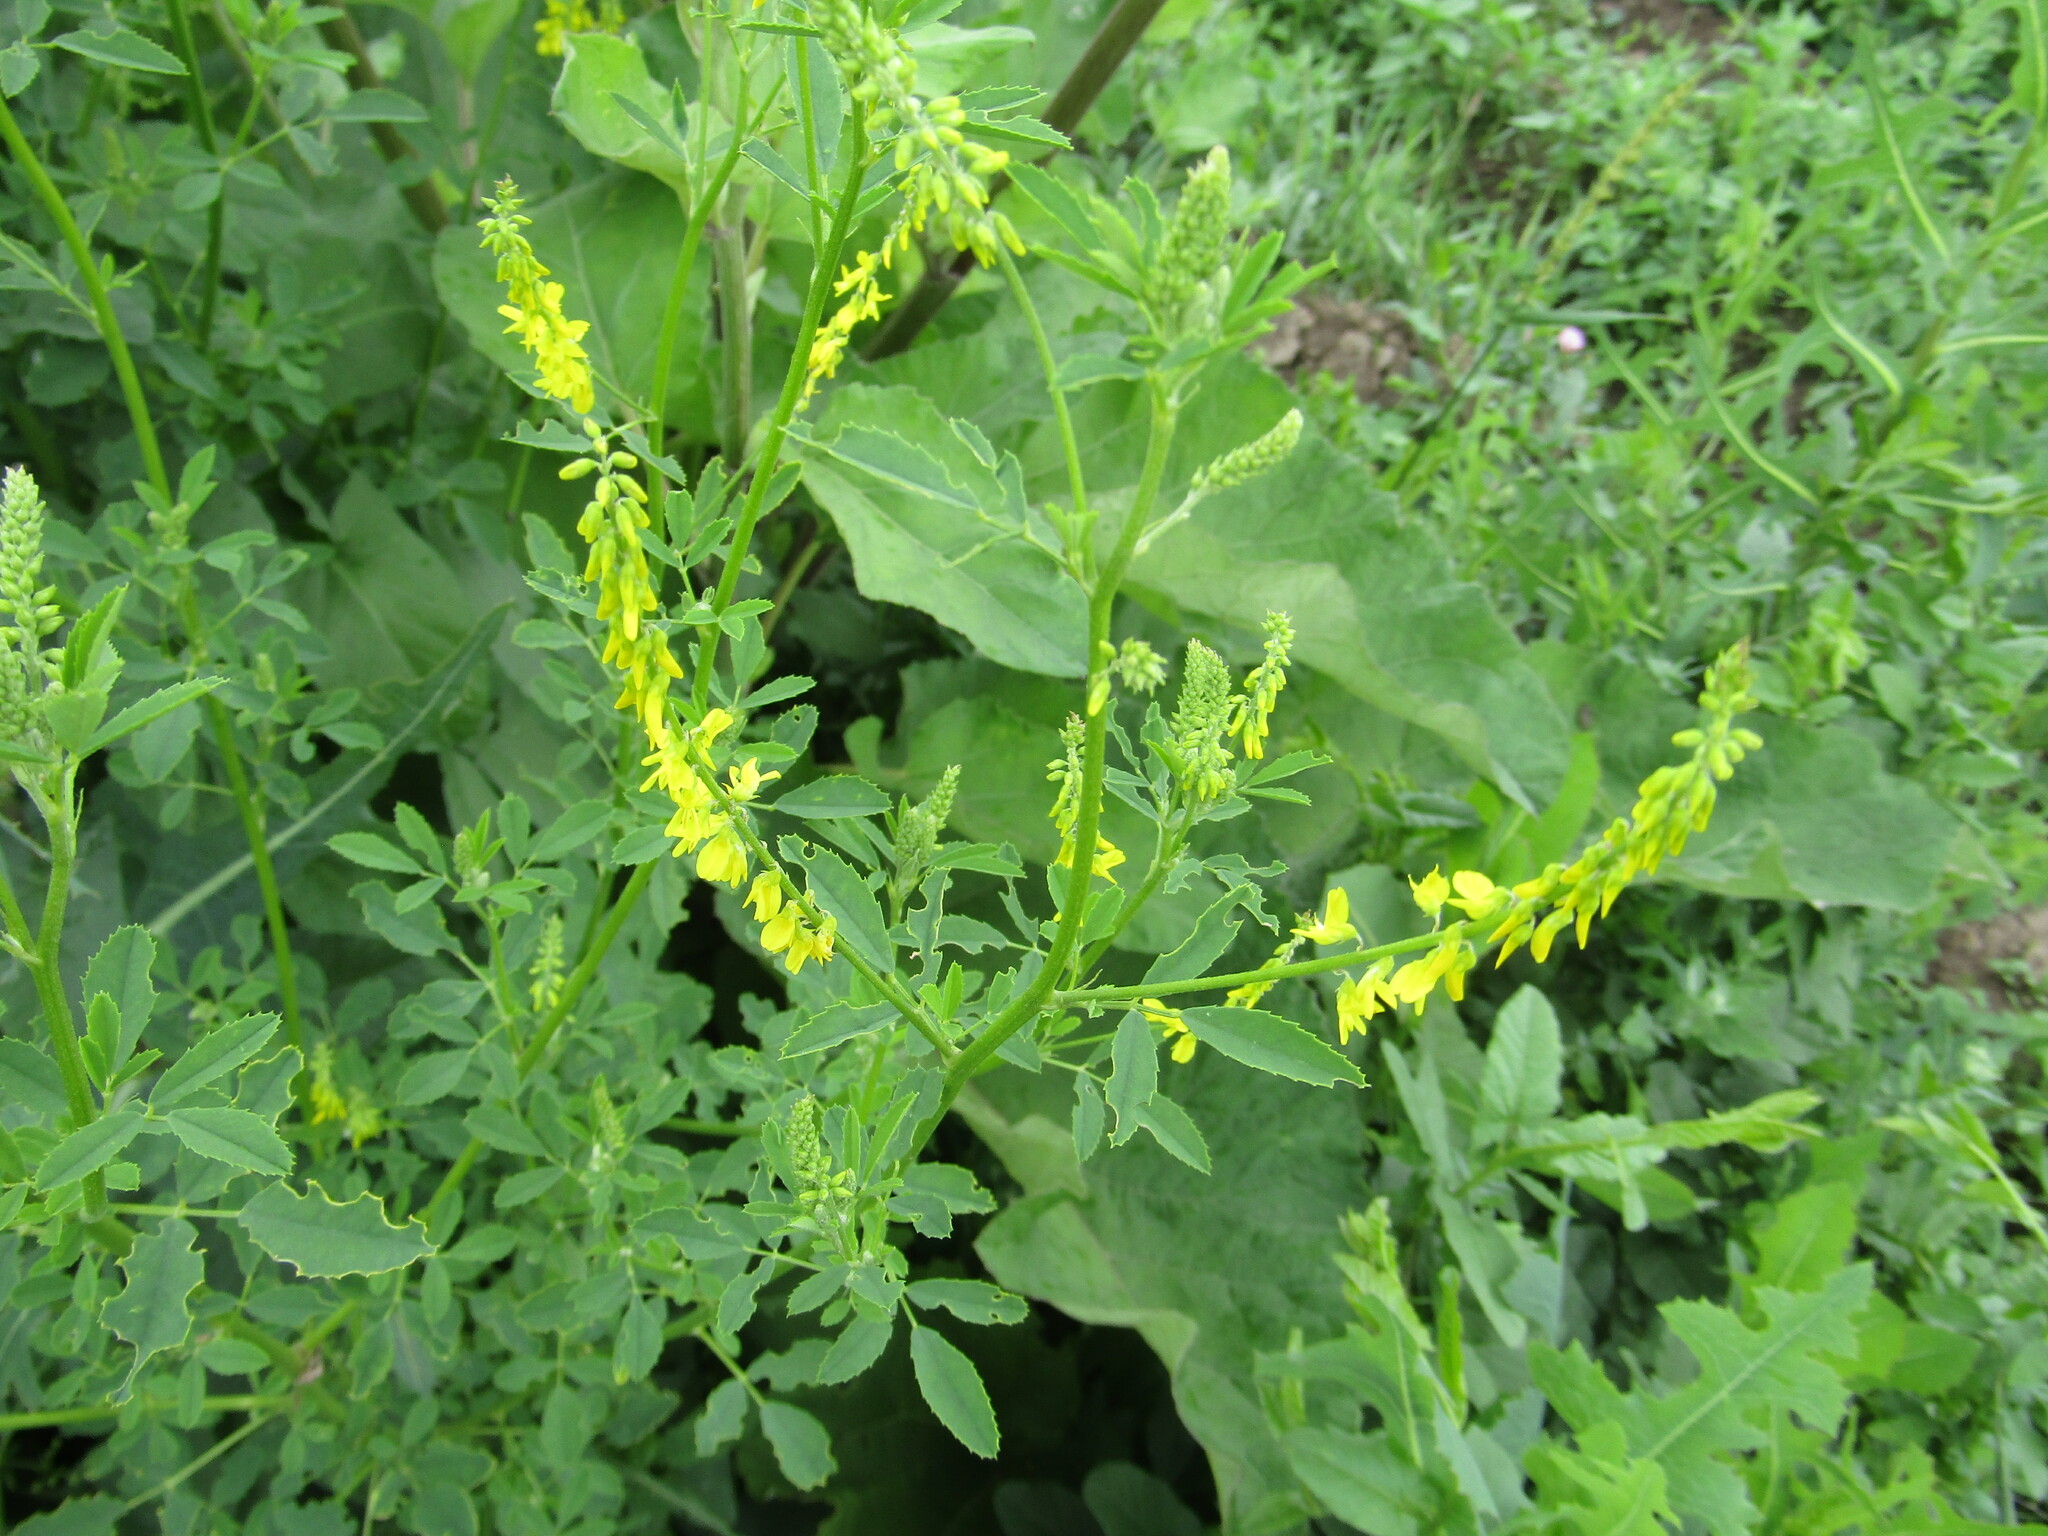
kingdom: Plantae
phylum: Tracheophyta
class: Magnoliopsida
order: Fabales
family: Fabaceae
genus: Melilotus
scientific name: Melilotus officinalis
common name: Sweetclover
